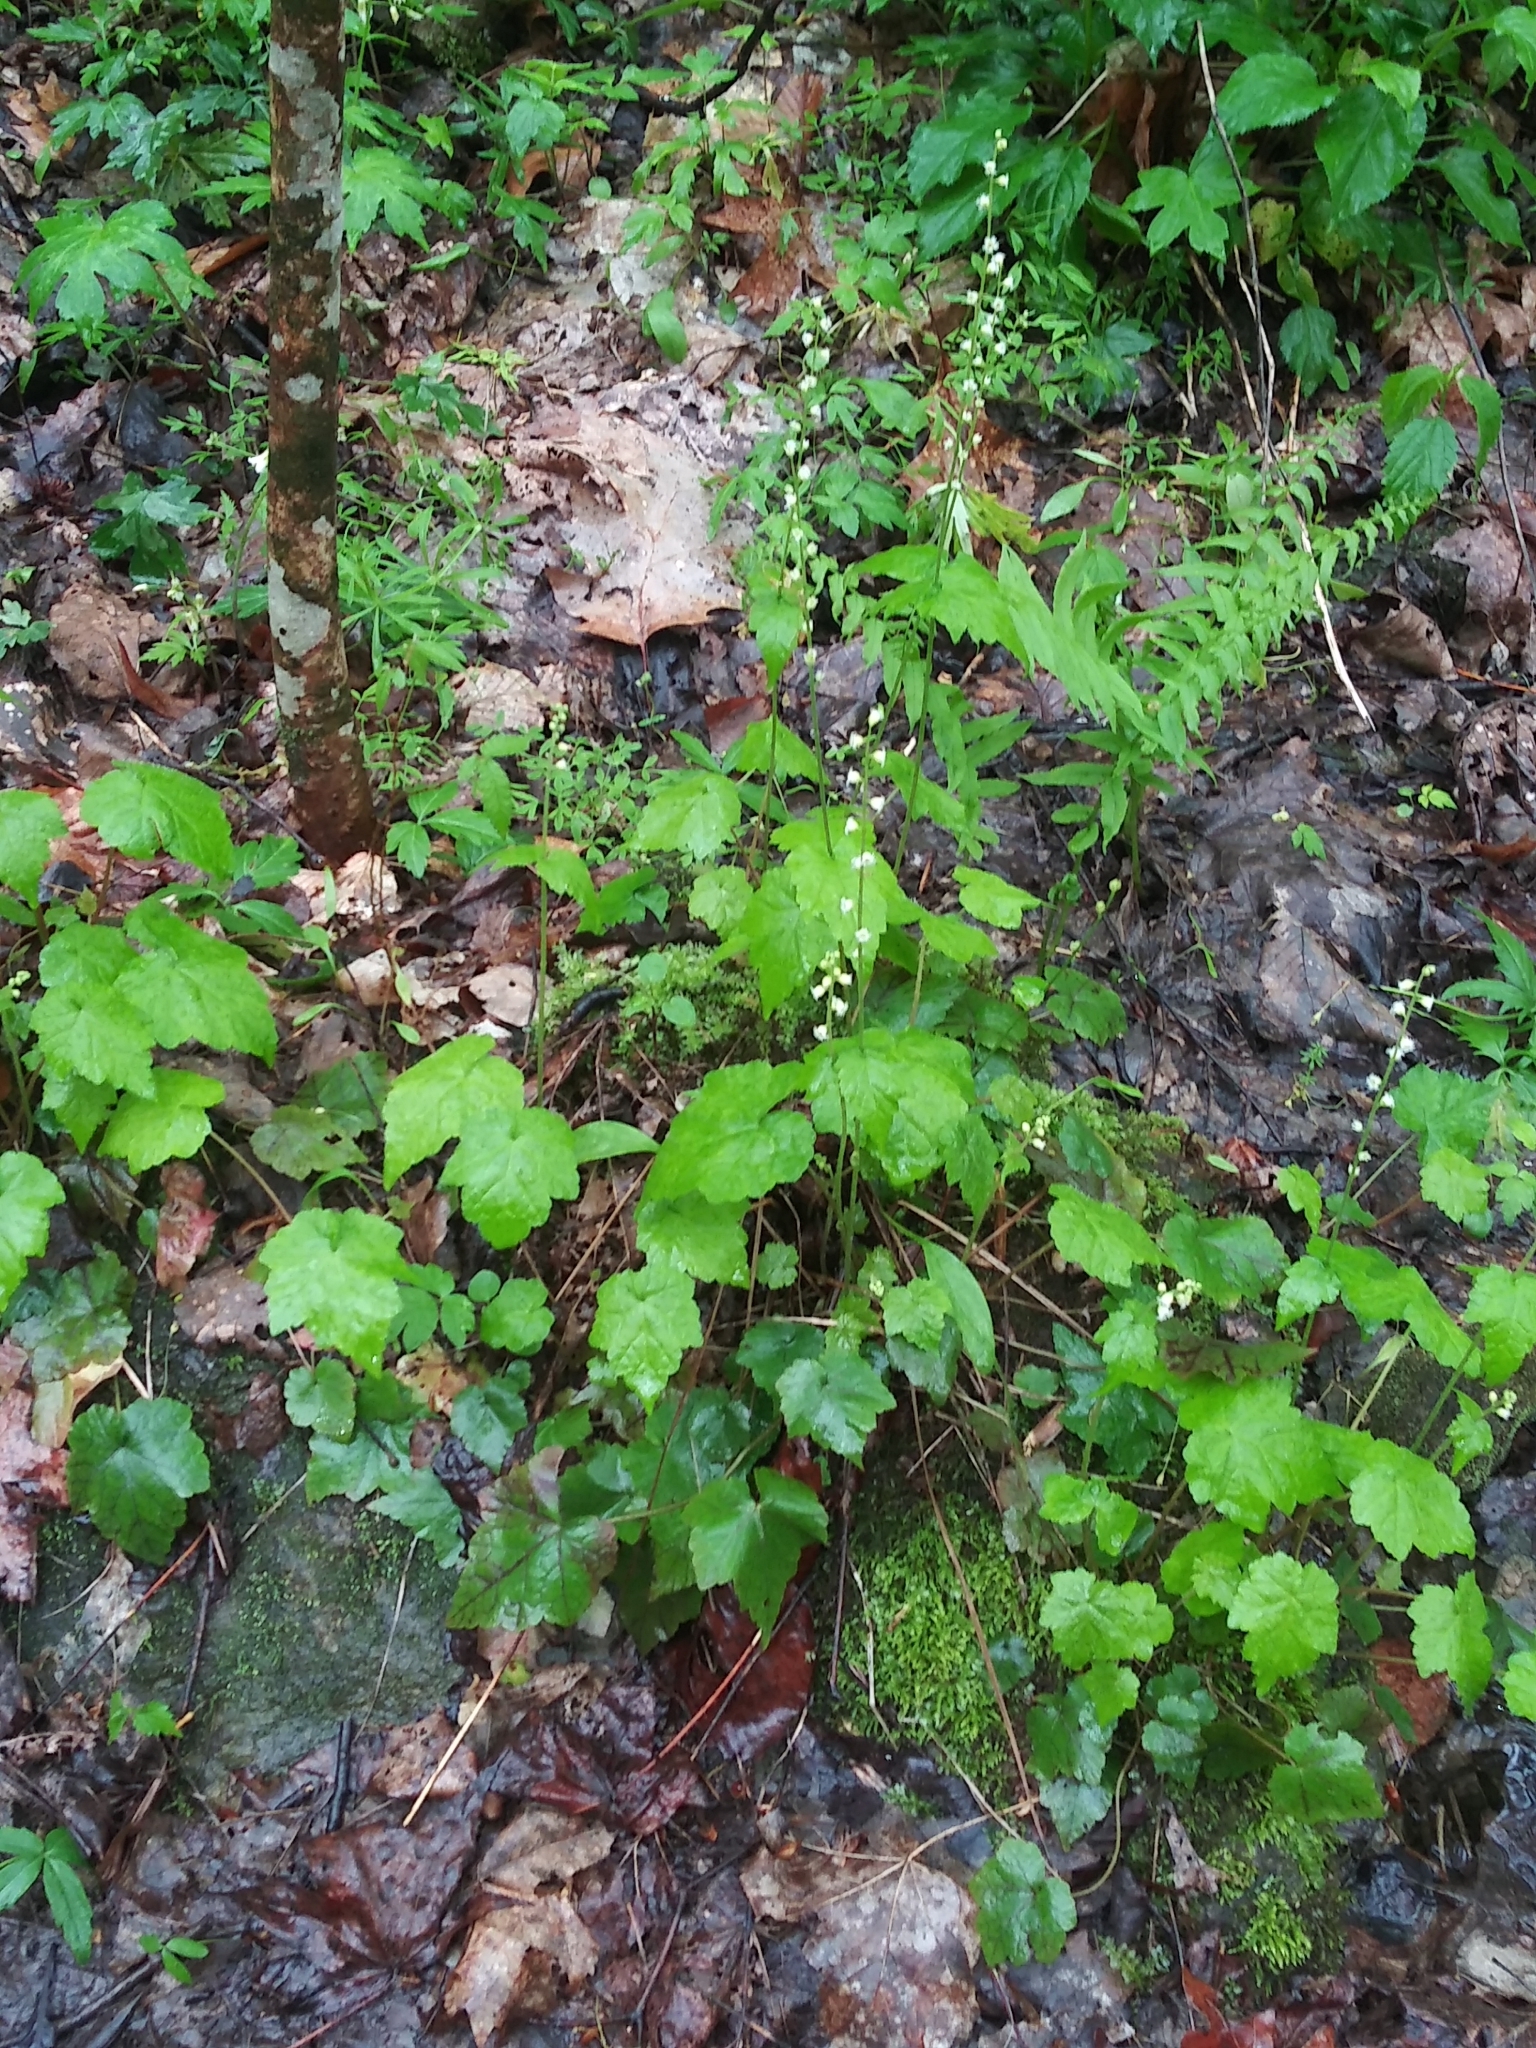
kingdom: Plantae
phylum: Tracheophyta
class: Magnoliopsida
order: Saxifragales
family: Saxifragaceae
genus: Mitella
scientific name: Mitella diphylla
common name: Coolwort
